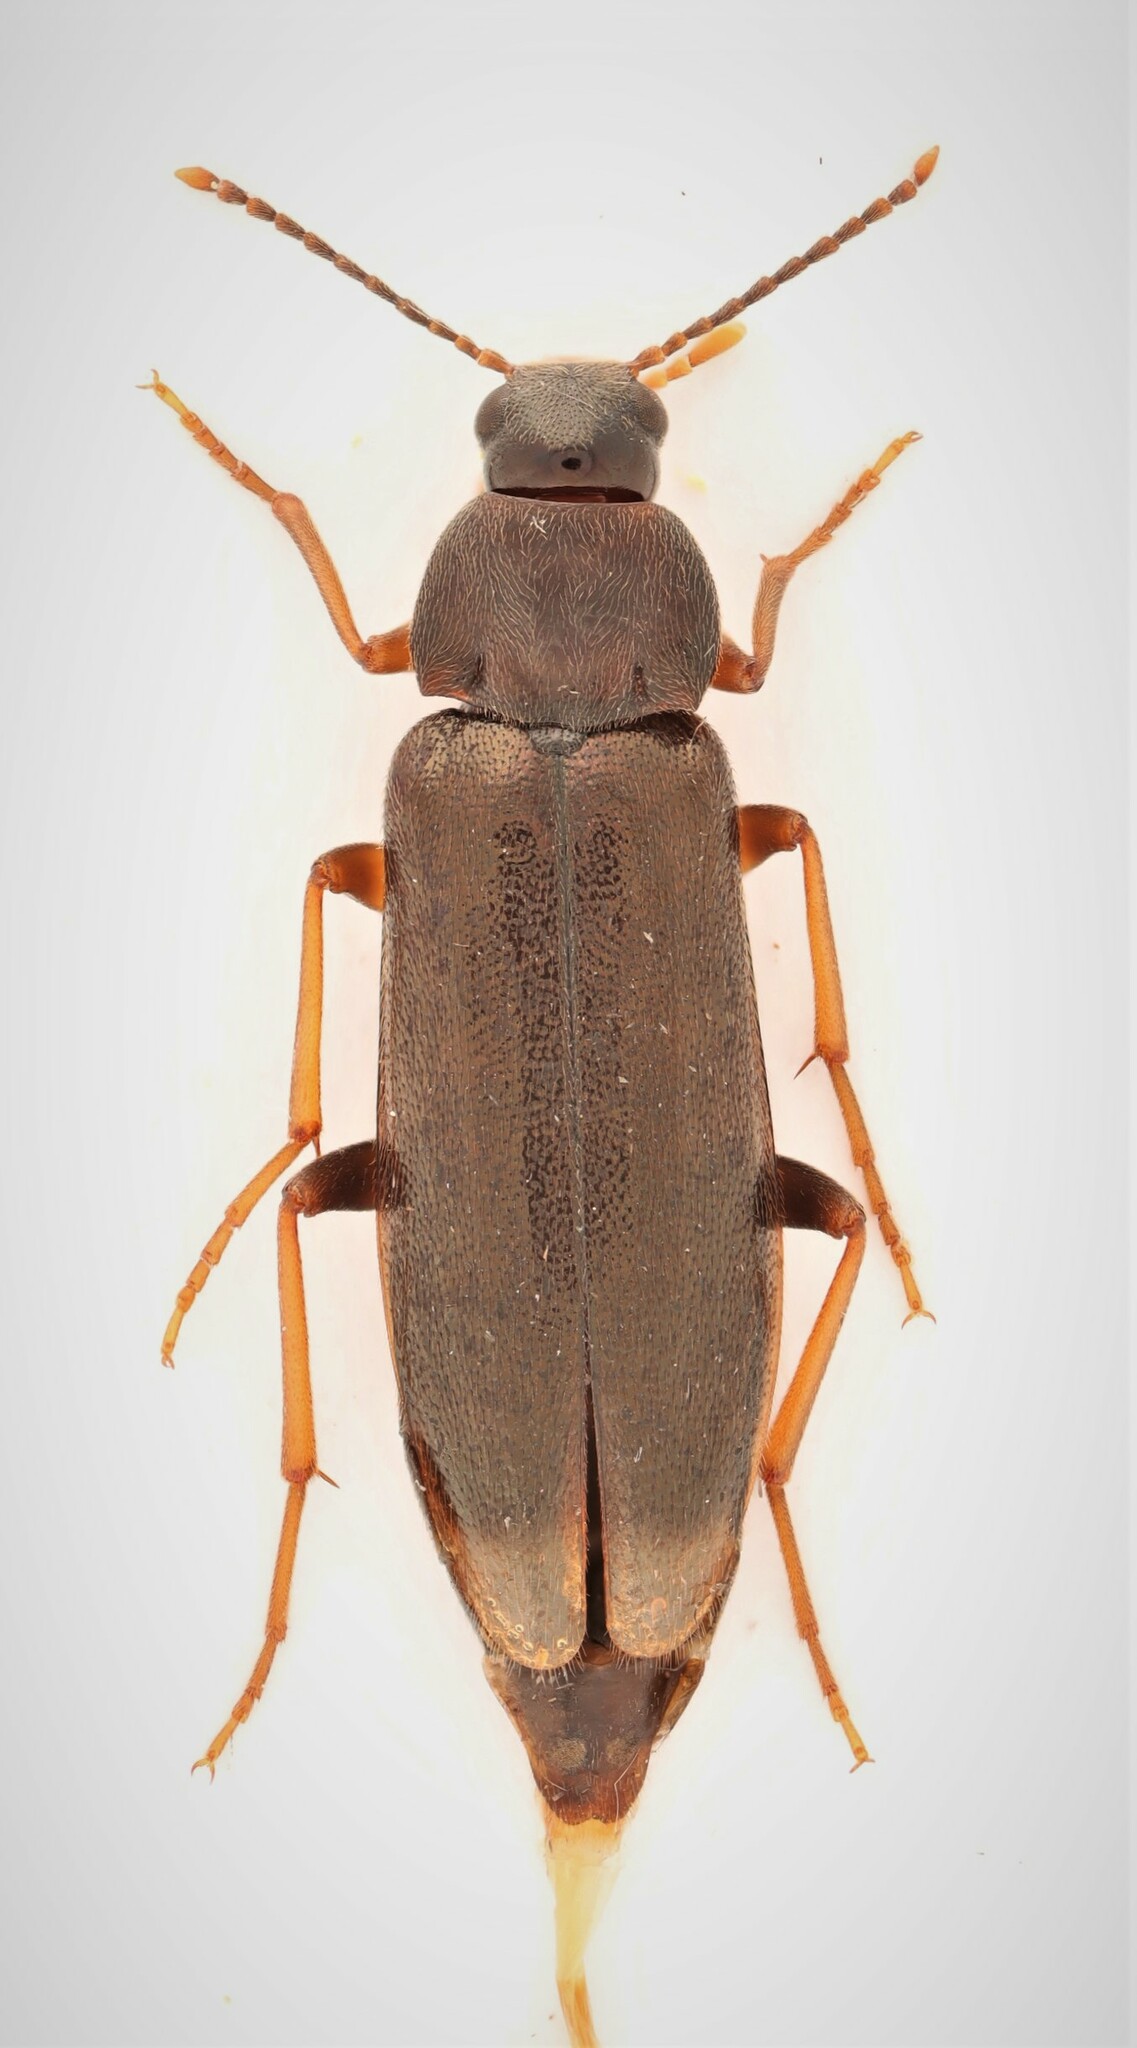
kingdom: Animalia
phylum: Arthropoda
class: Insecta
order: Coleoptera
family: Melandryidae
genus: Emmesa
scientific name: Emmesa connectens
